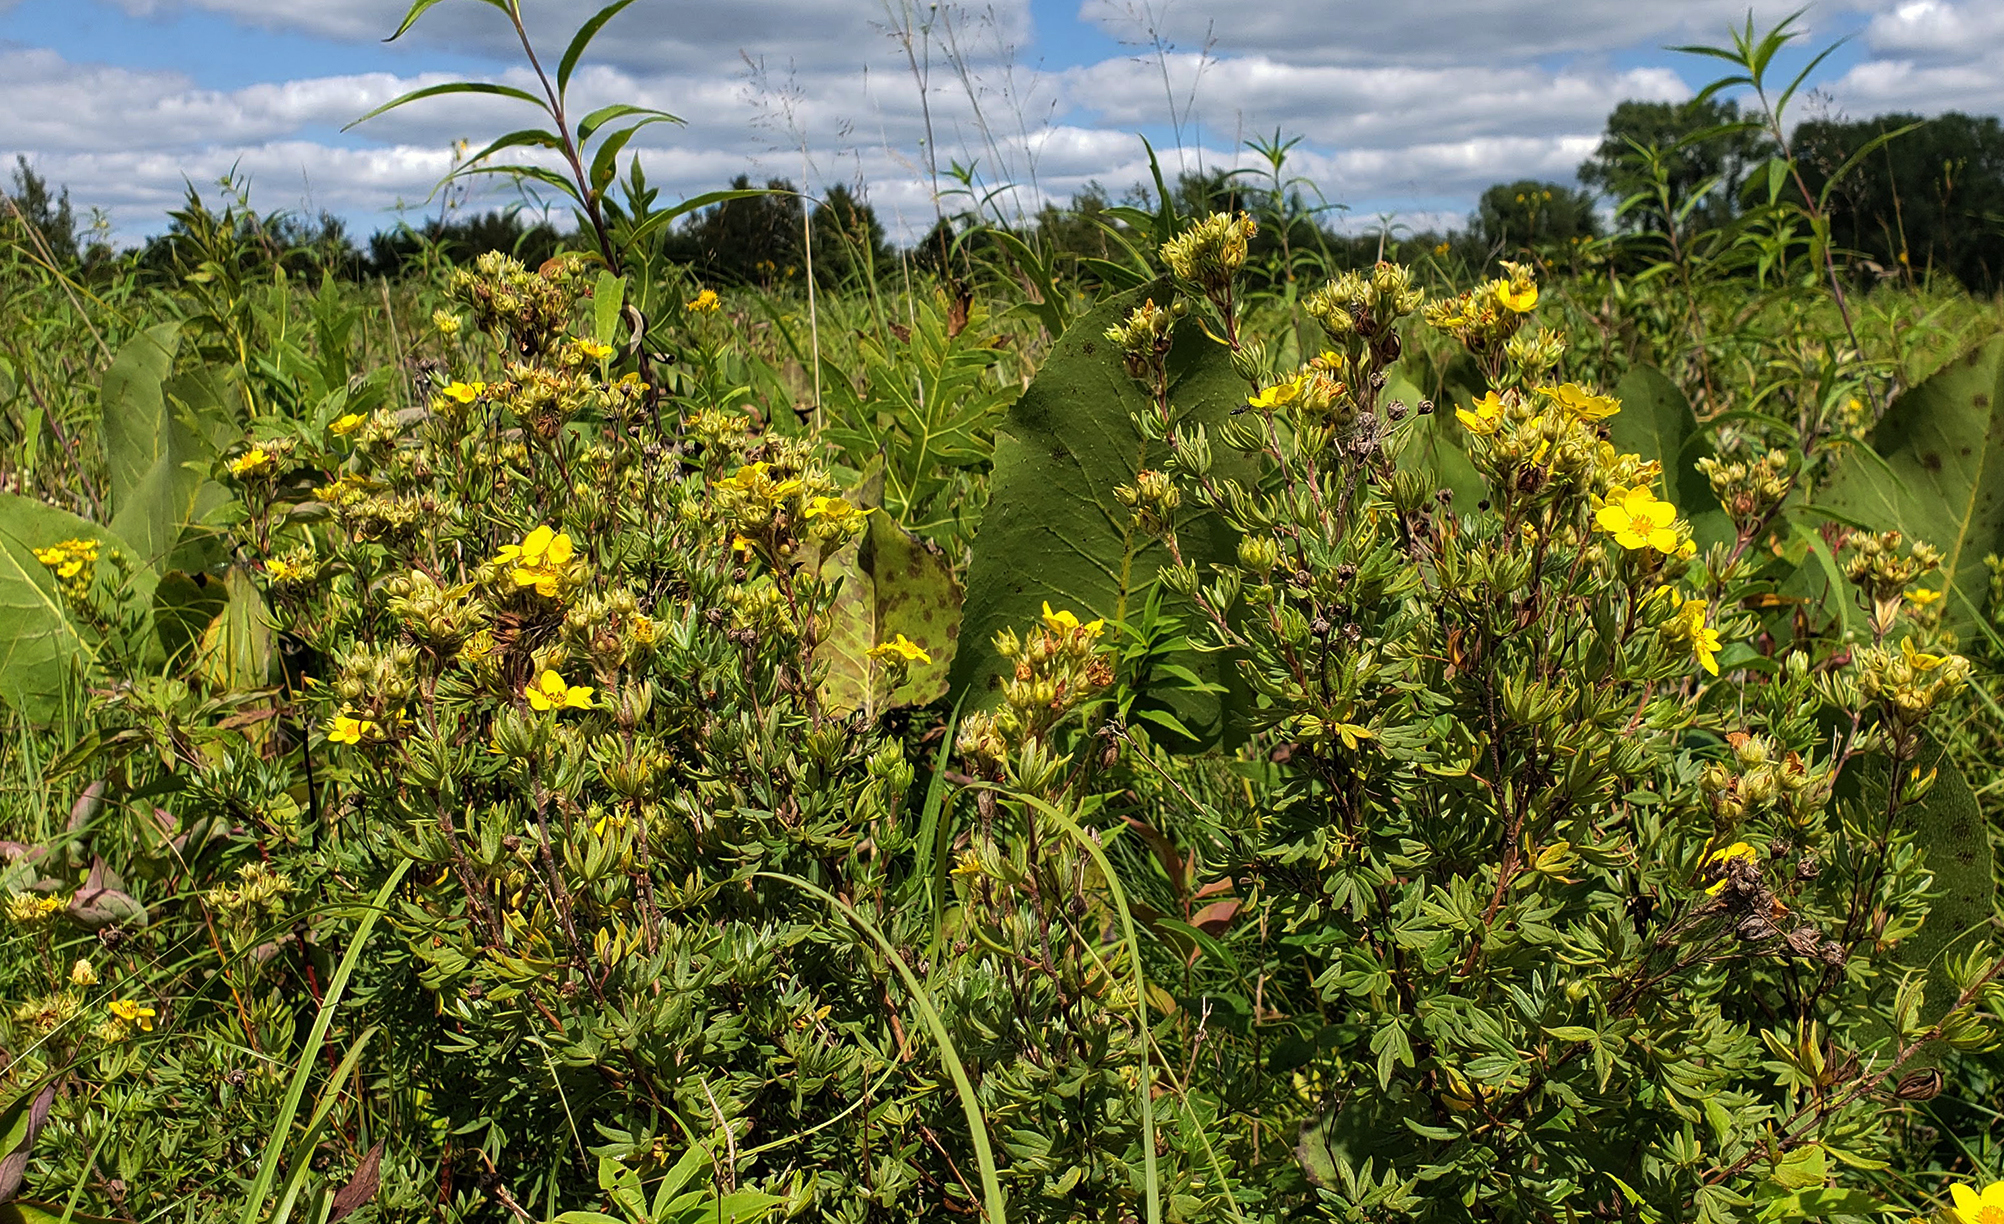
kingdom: Plantae
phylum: Tracheophyta
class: Magnoliopsida
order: Rosales
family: Rosaceae
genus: Dasiphora
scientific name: Dasiphora fruticosa
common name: Shrubby cinquefoil
